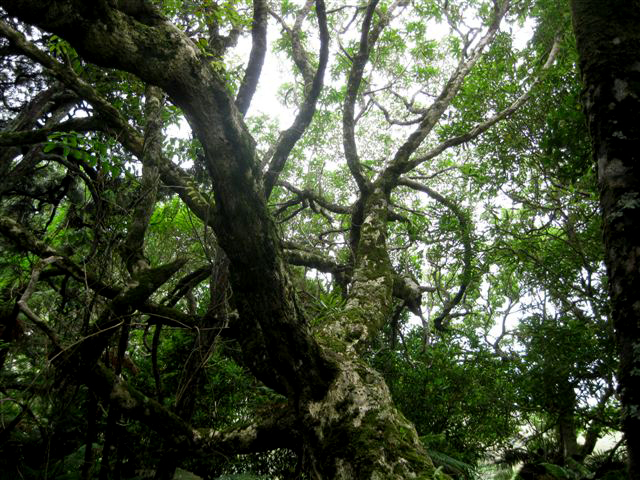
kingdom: Plantae
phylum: Tracheophyta
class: Magnoliopsida
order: Lamiales
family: Scrophulariaceae
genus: Myoporum
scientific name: Myoporum semotum
